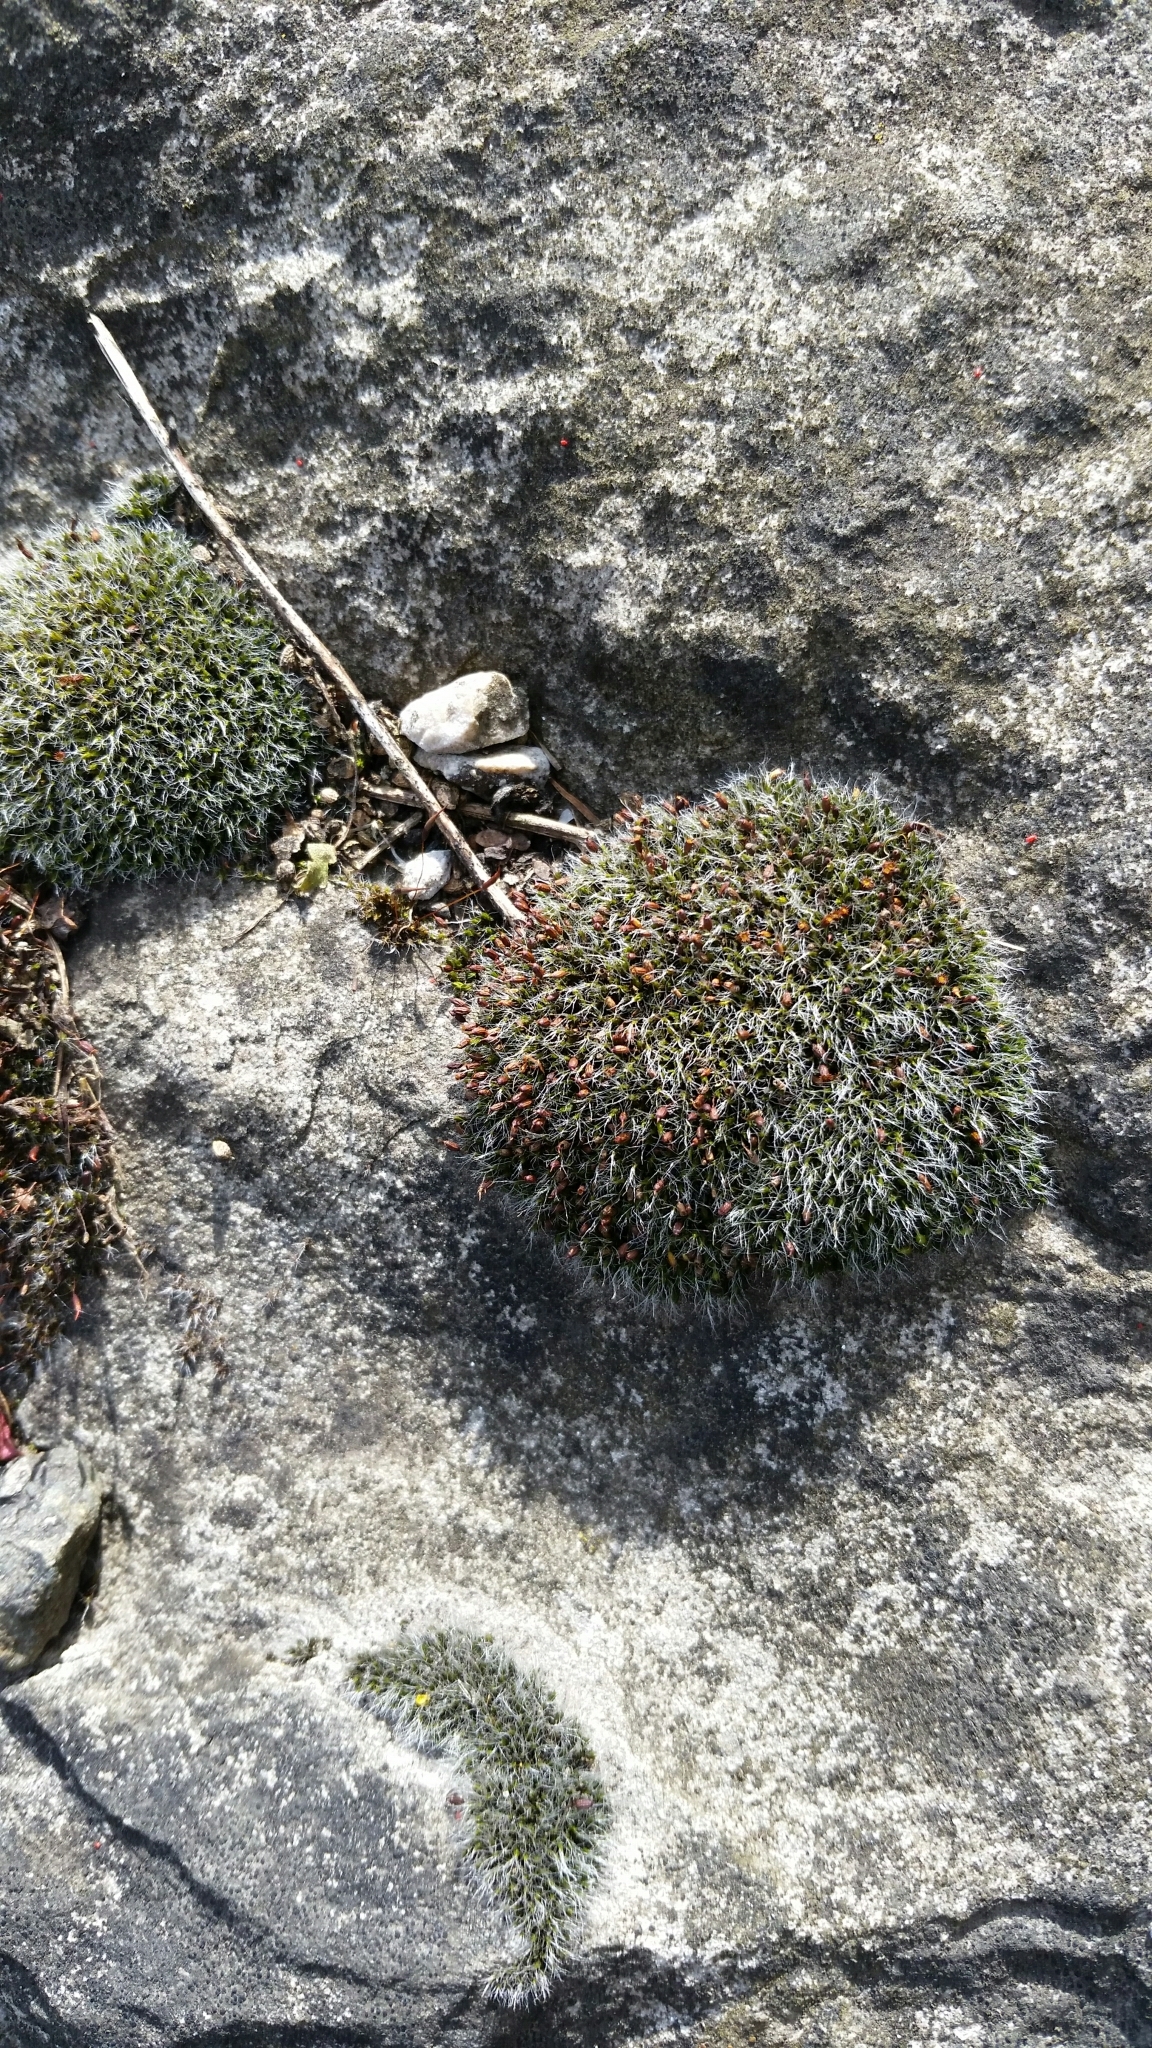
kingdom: Plantae
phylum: Bryophyta
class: Bryopsida
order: Grimmiales
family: Grimmiaceae
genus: Grimmia
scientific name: Grimmia pulvinata
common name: Grey-cushioned grimmia
